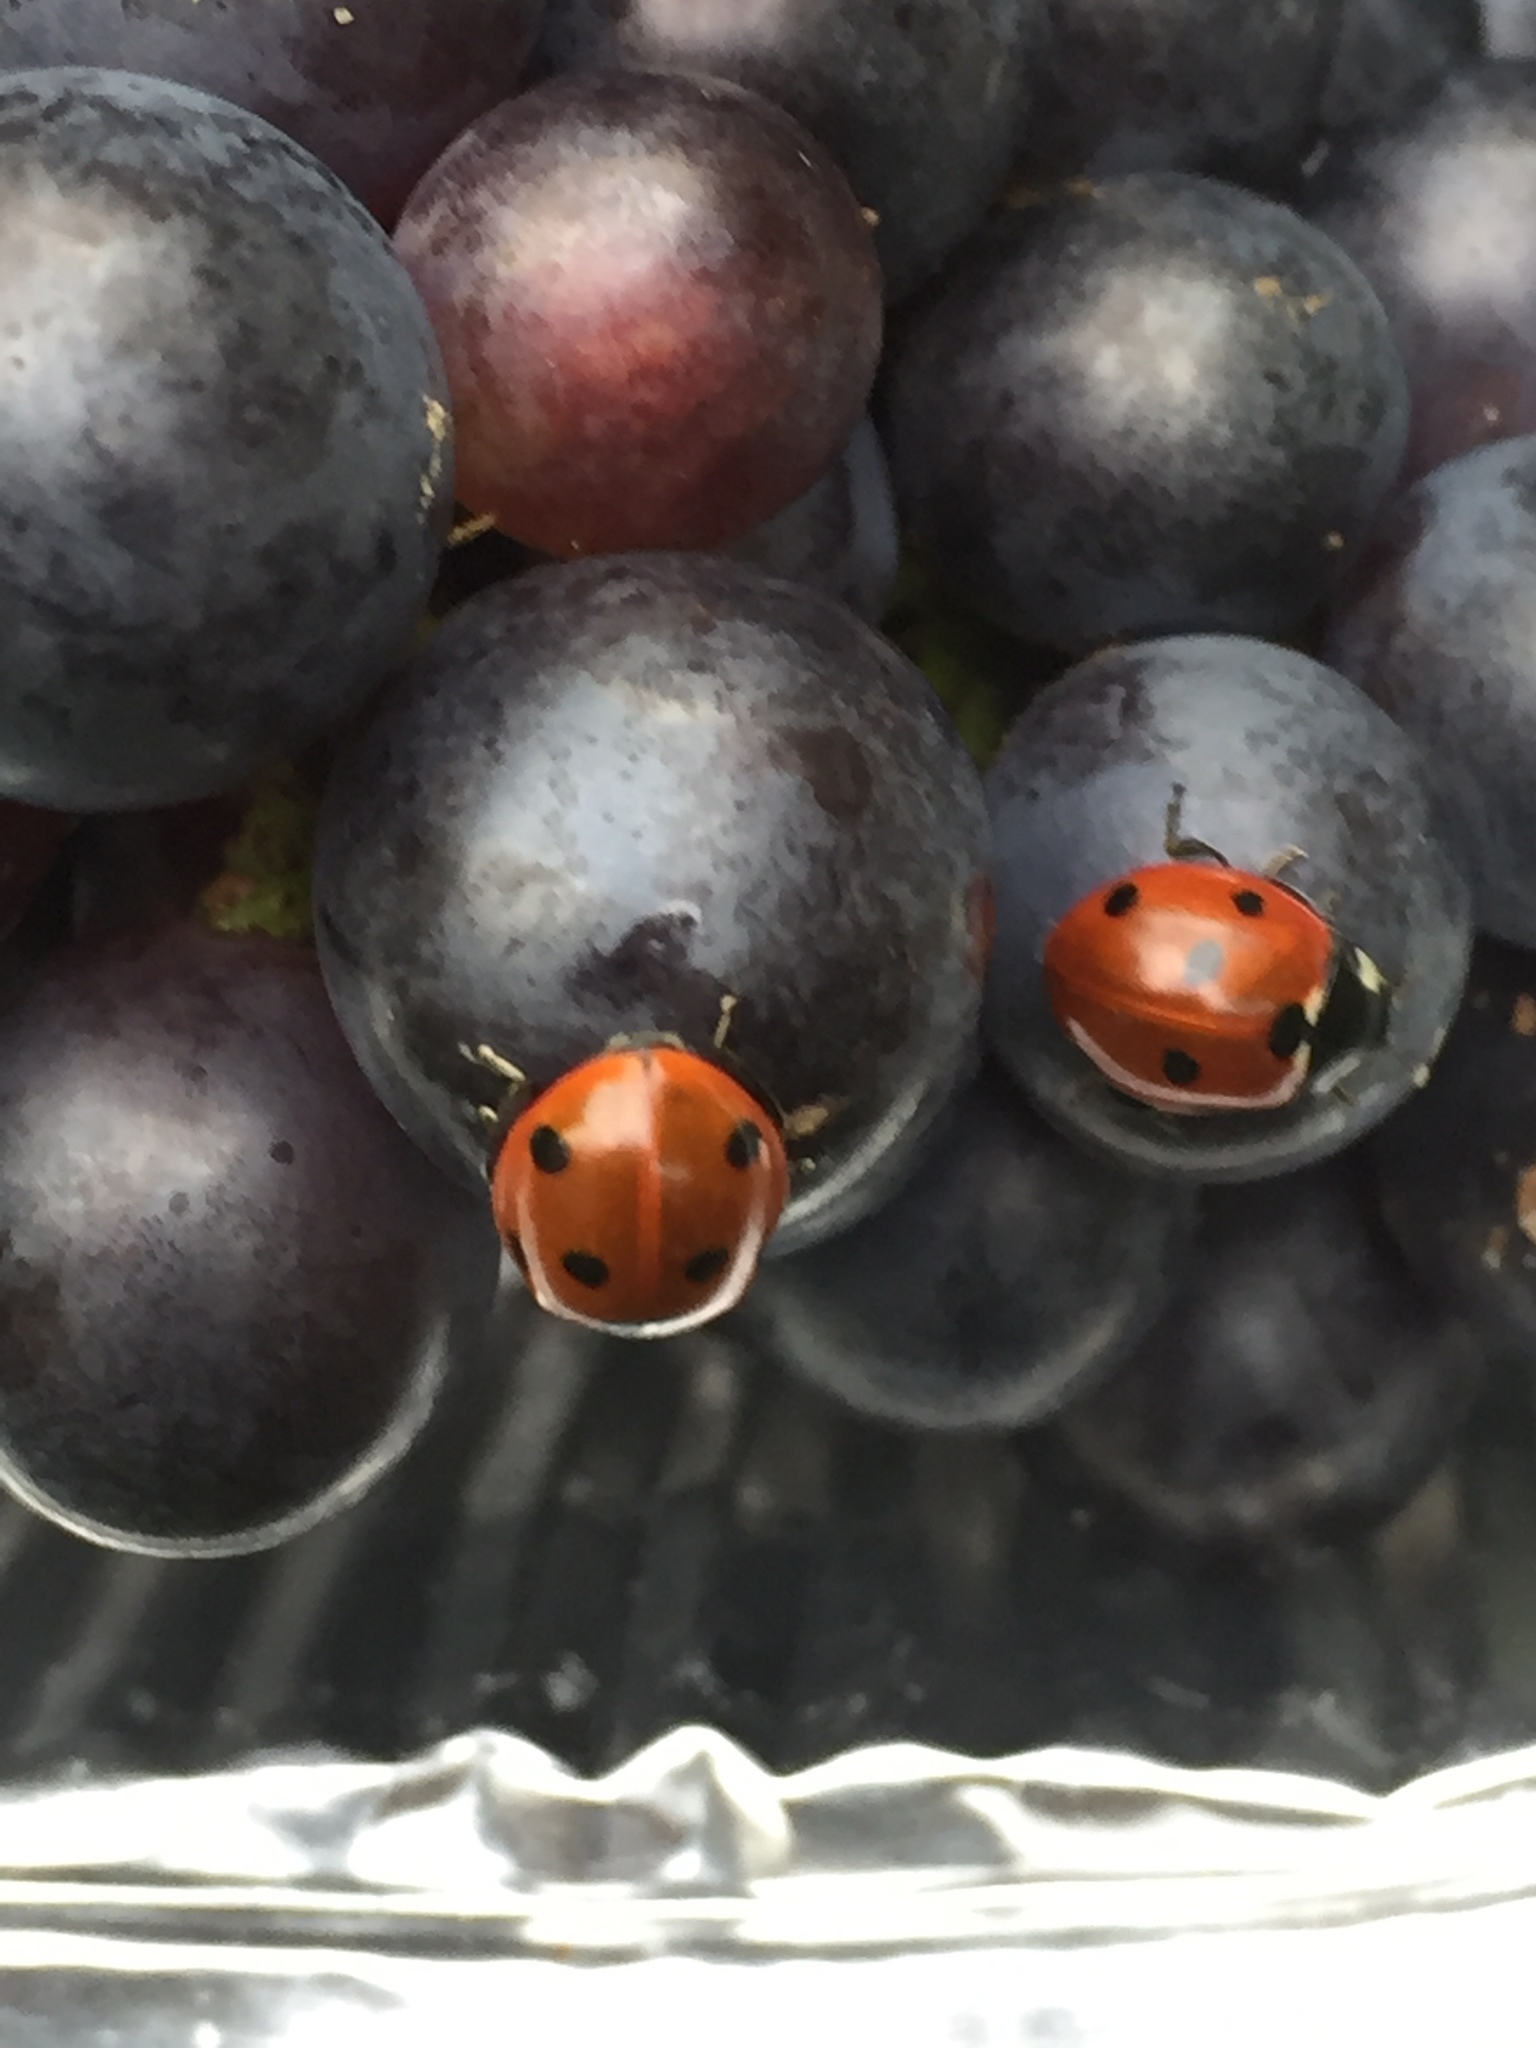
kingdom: Animalia
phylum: Arthropoda
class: Insecta
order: Coleoptera
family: Coccinellidae
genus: Coccinella
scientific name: Coccinella septempunctata
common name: Sevenspotted lady beetle
